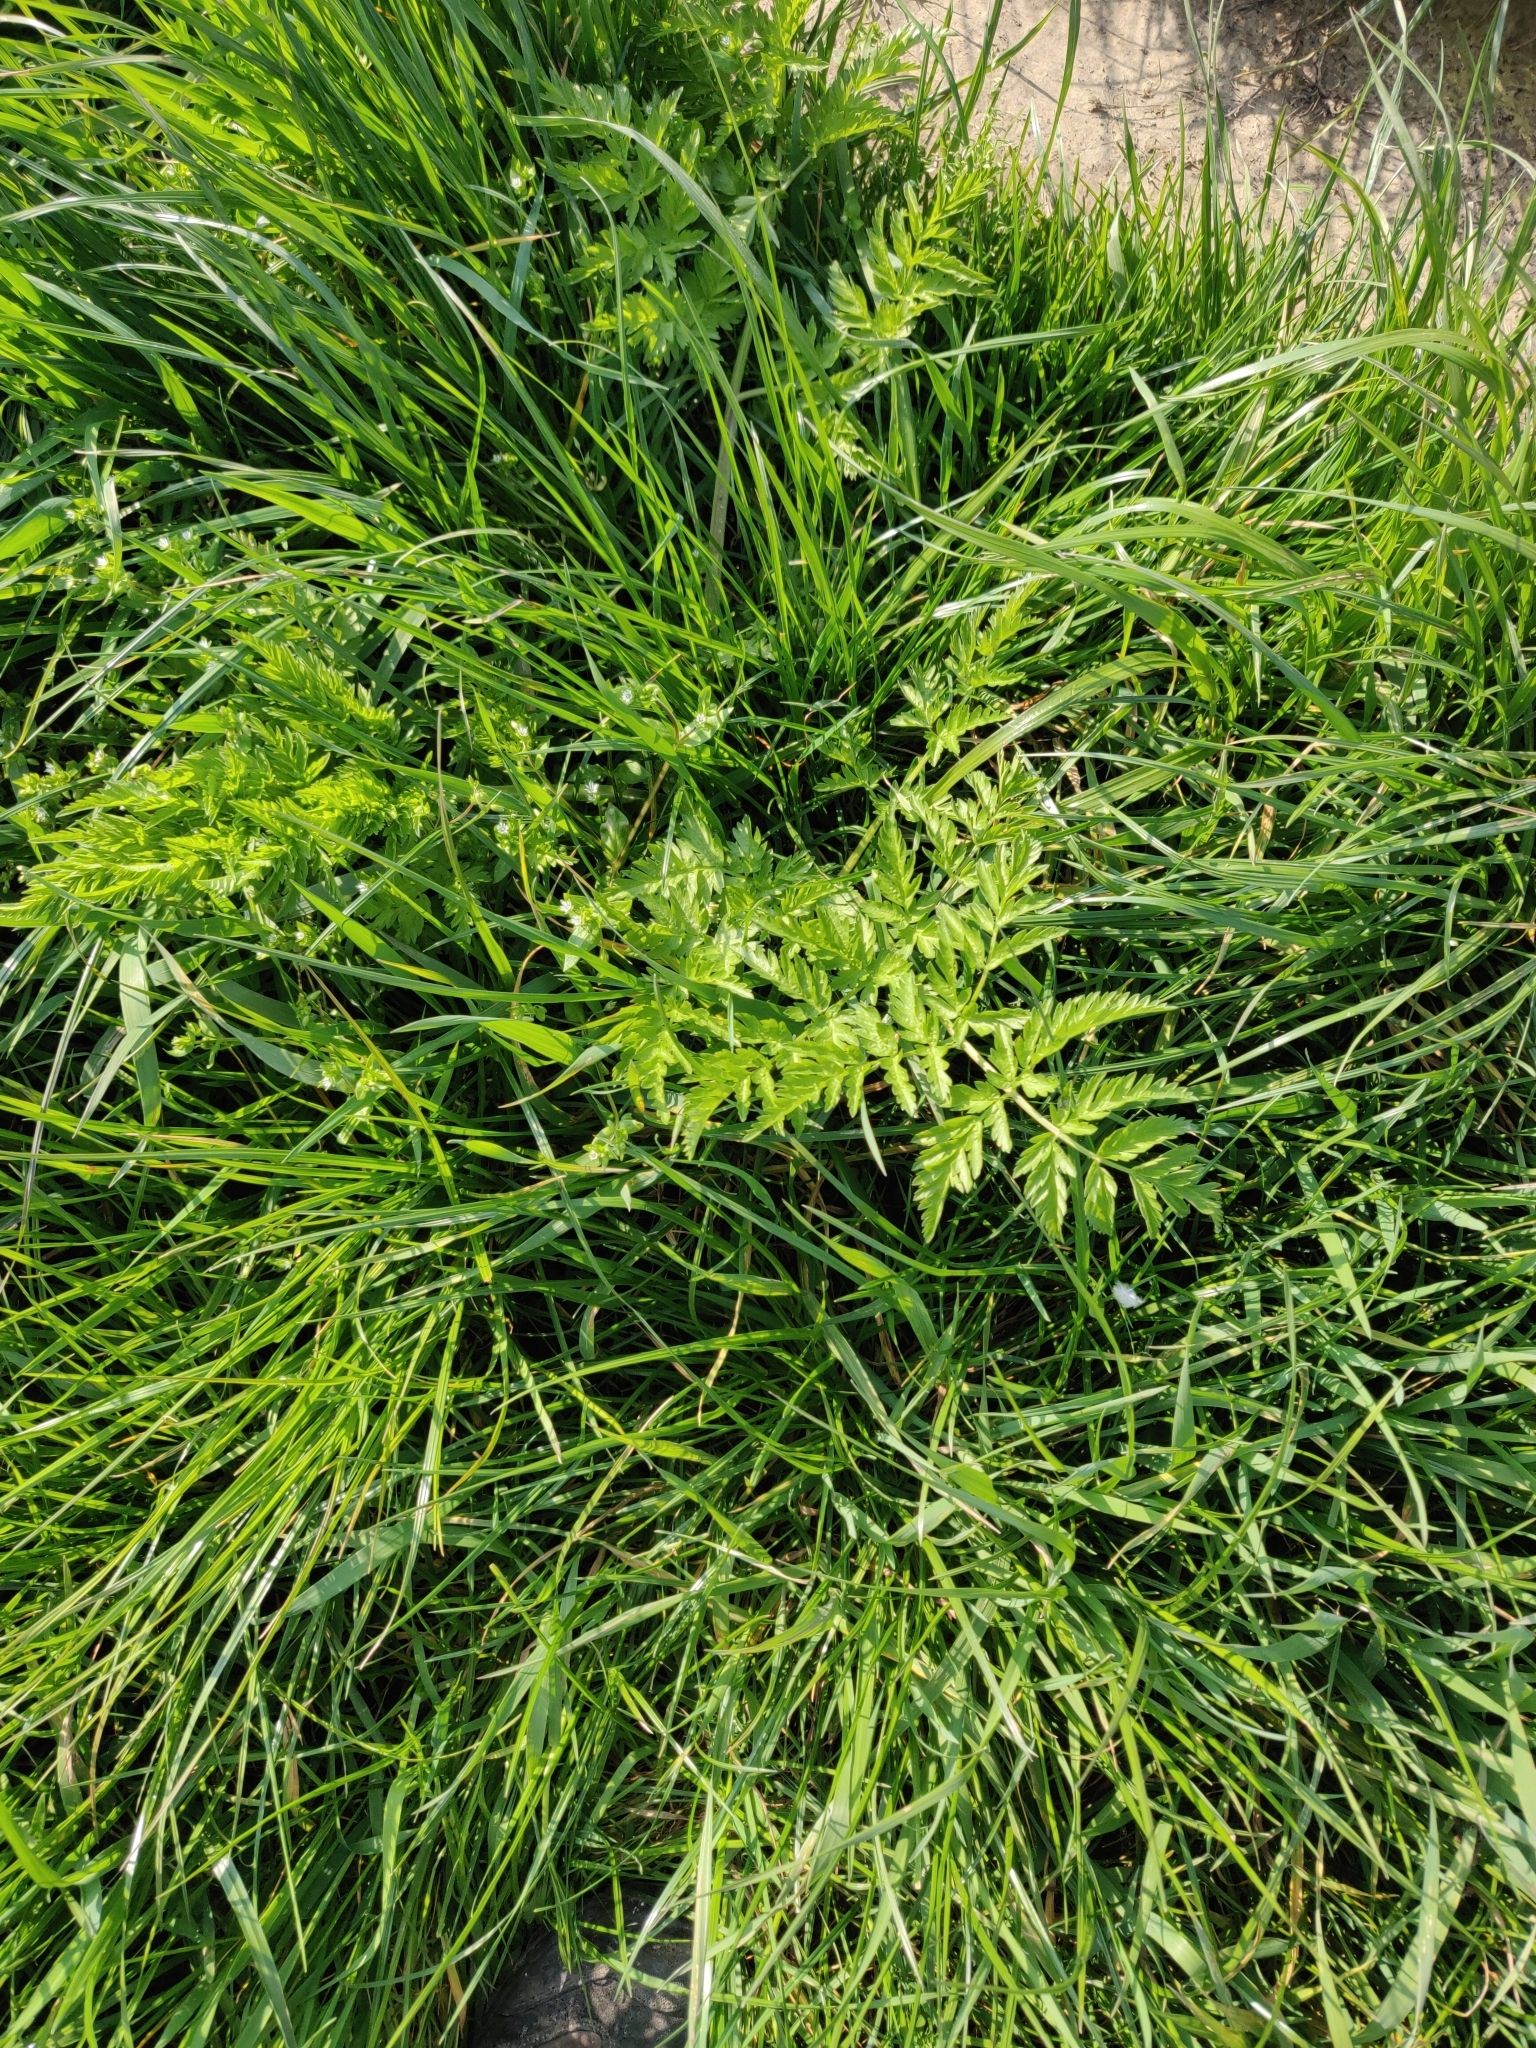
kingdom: Plantae
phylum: Tracheophyta
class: Magnoliopsida
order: Apiales
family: Apiaceae
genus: Anthriscus
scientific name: Anthriscus sylvestris
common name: Cow parsley
